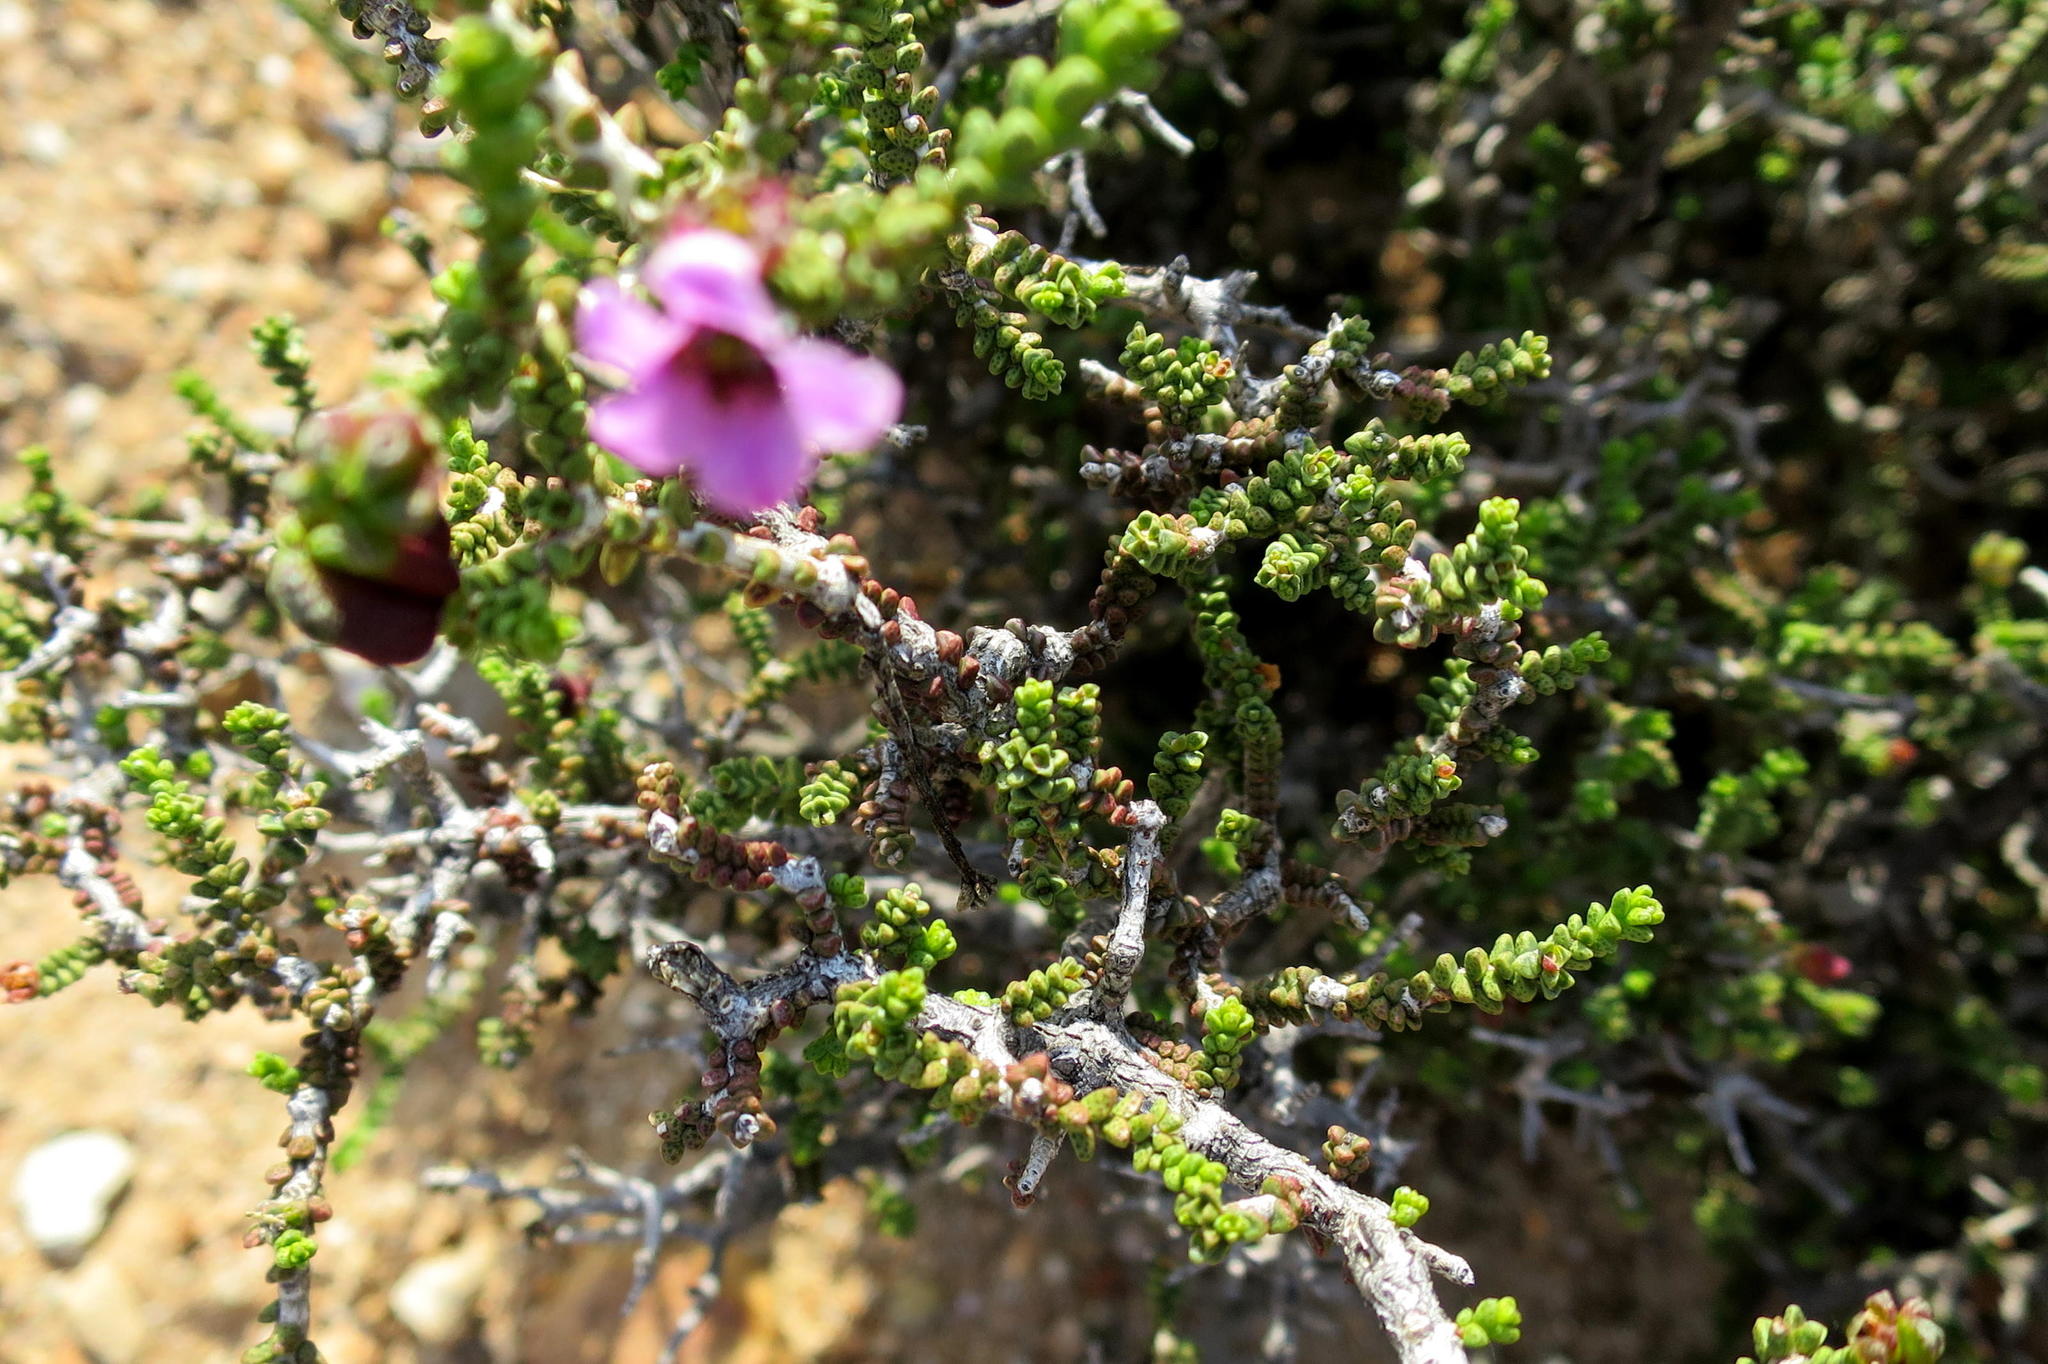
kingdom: Plantae
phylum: Tracheophyta
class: Magnoliopsida
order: Sapindales
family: Rutaceae
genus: Acmadenia
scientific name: Acmadenia argillophila
